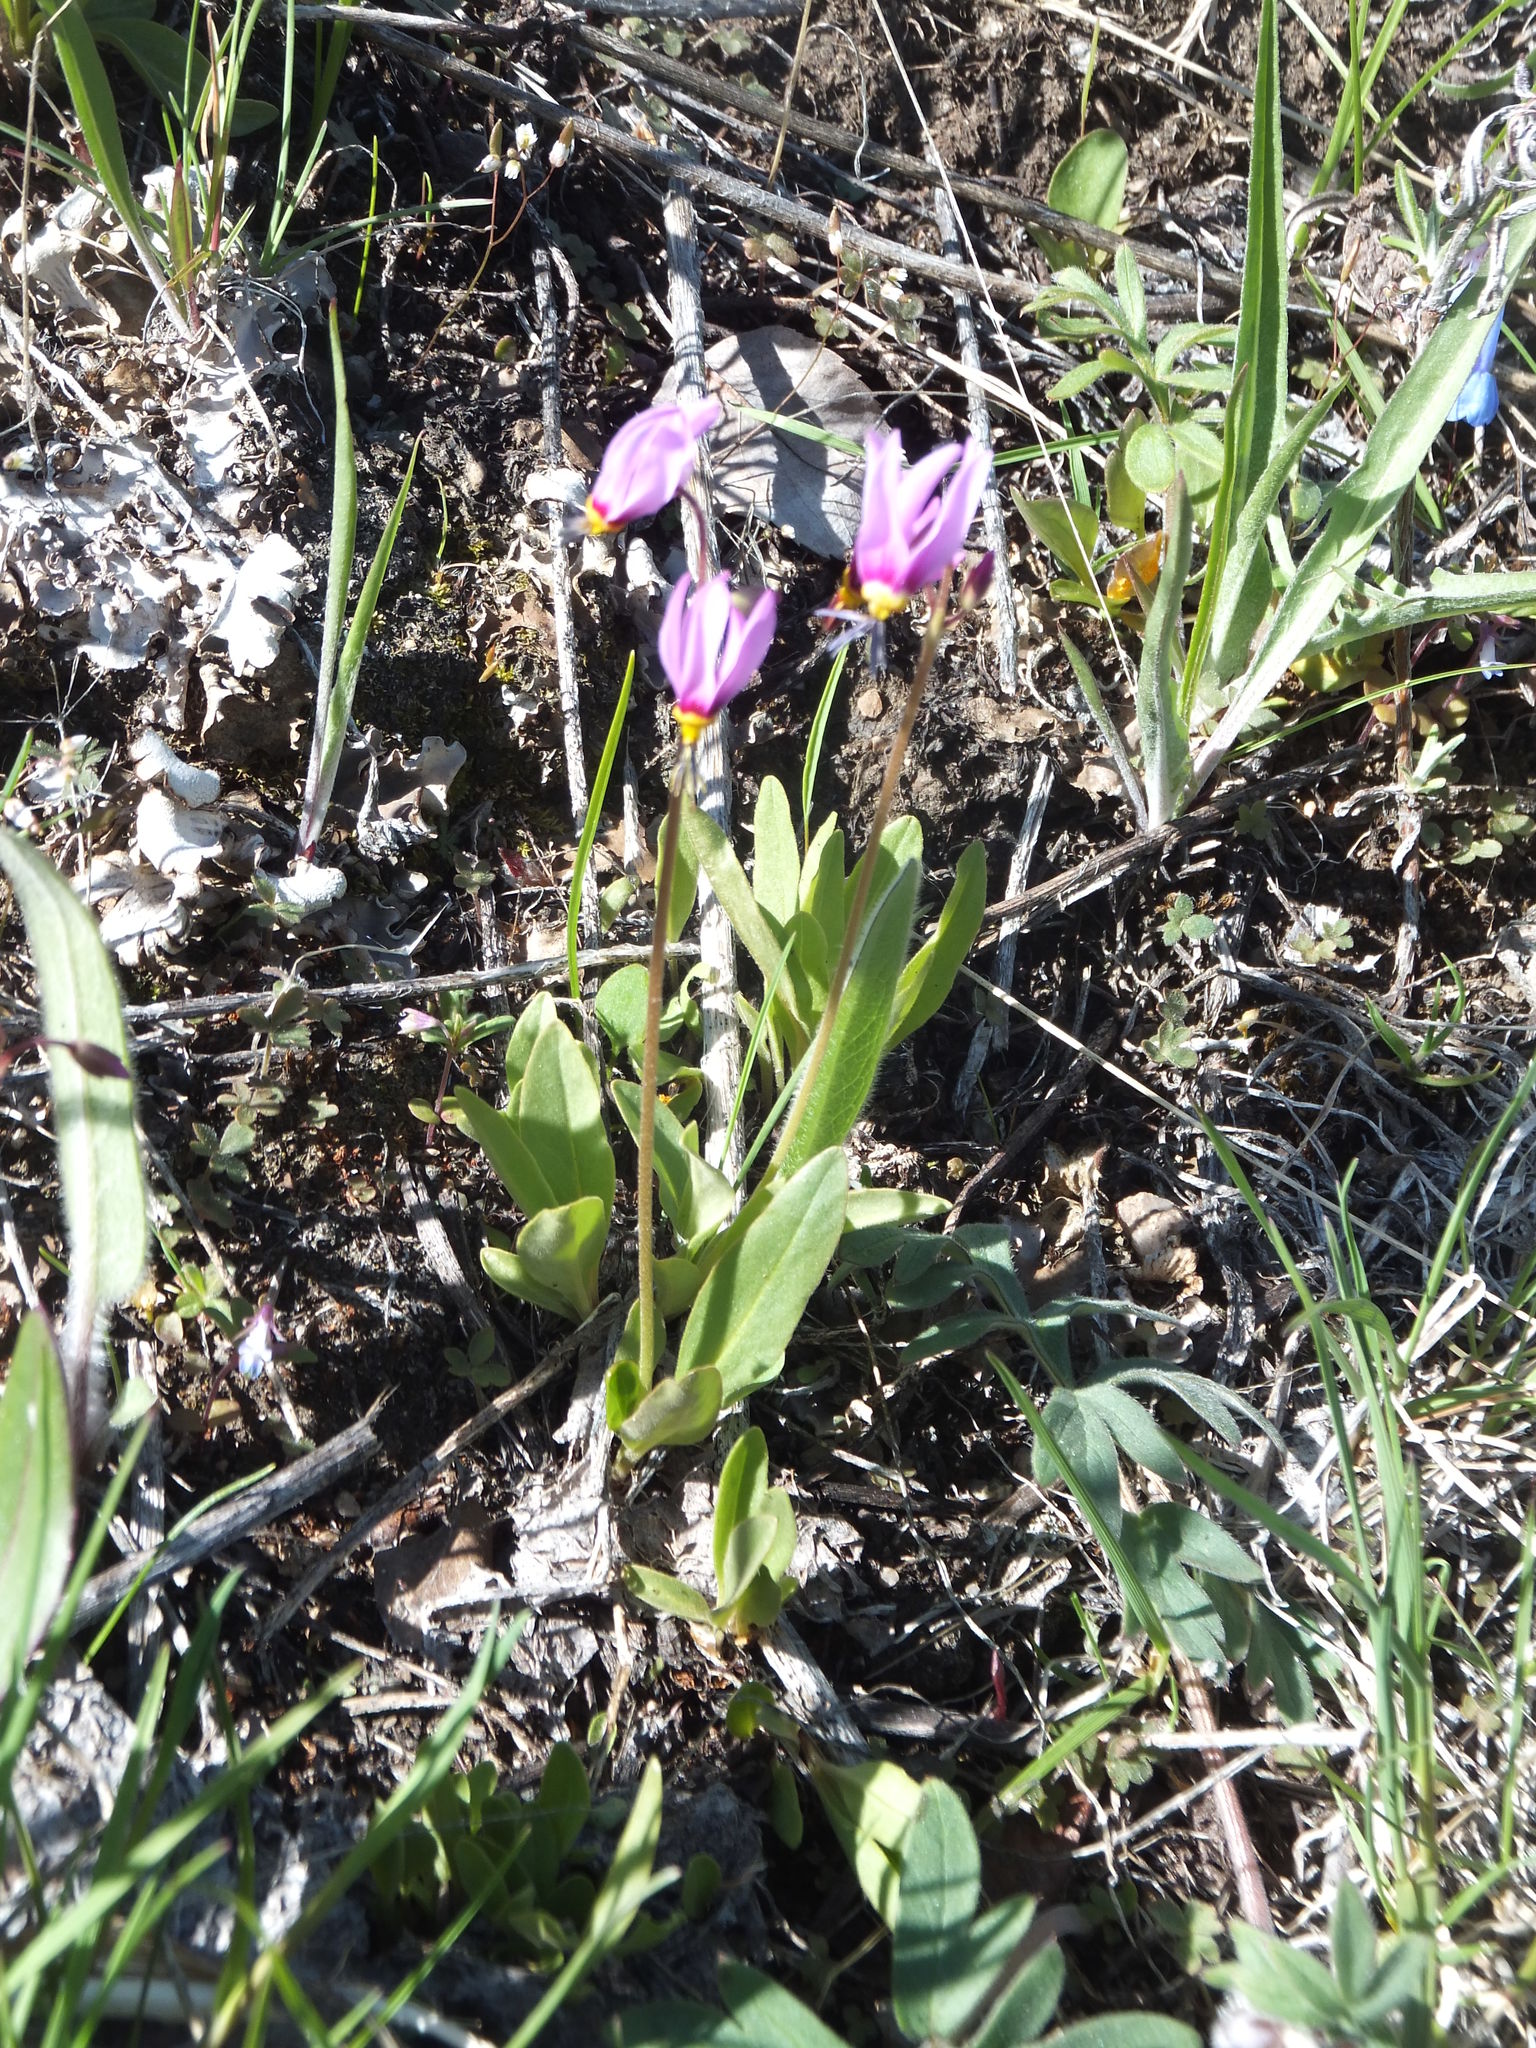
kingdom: Plantae
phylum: Tracheophyta
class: Magnoliopsida
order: Ericales
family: Primulaceae
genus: Dodecatheon
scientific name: Dodecatheon pulchellum
